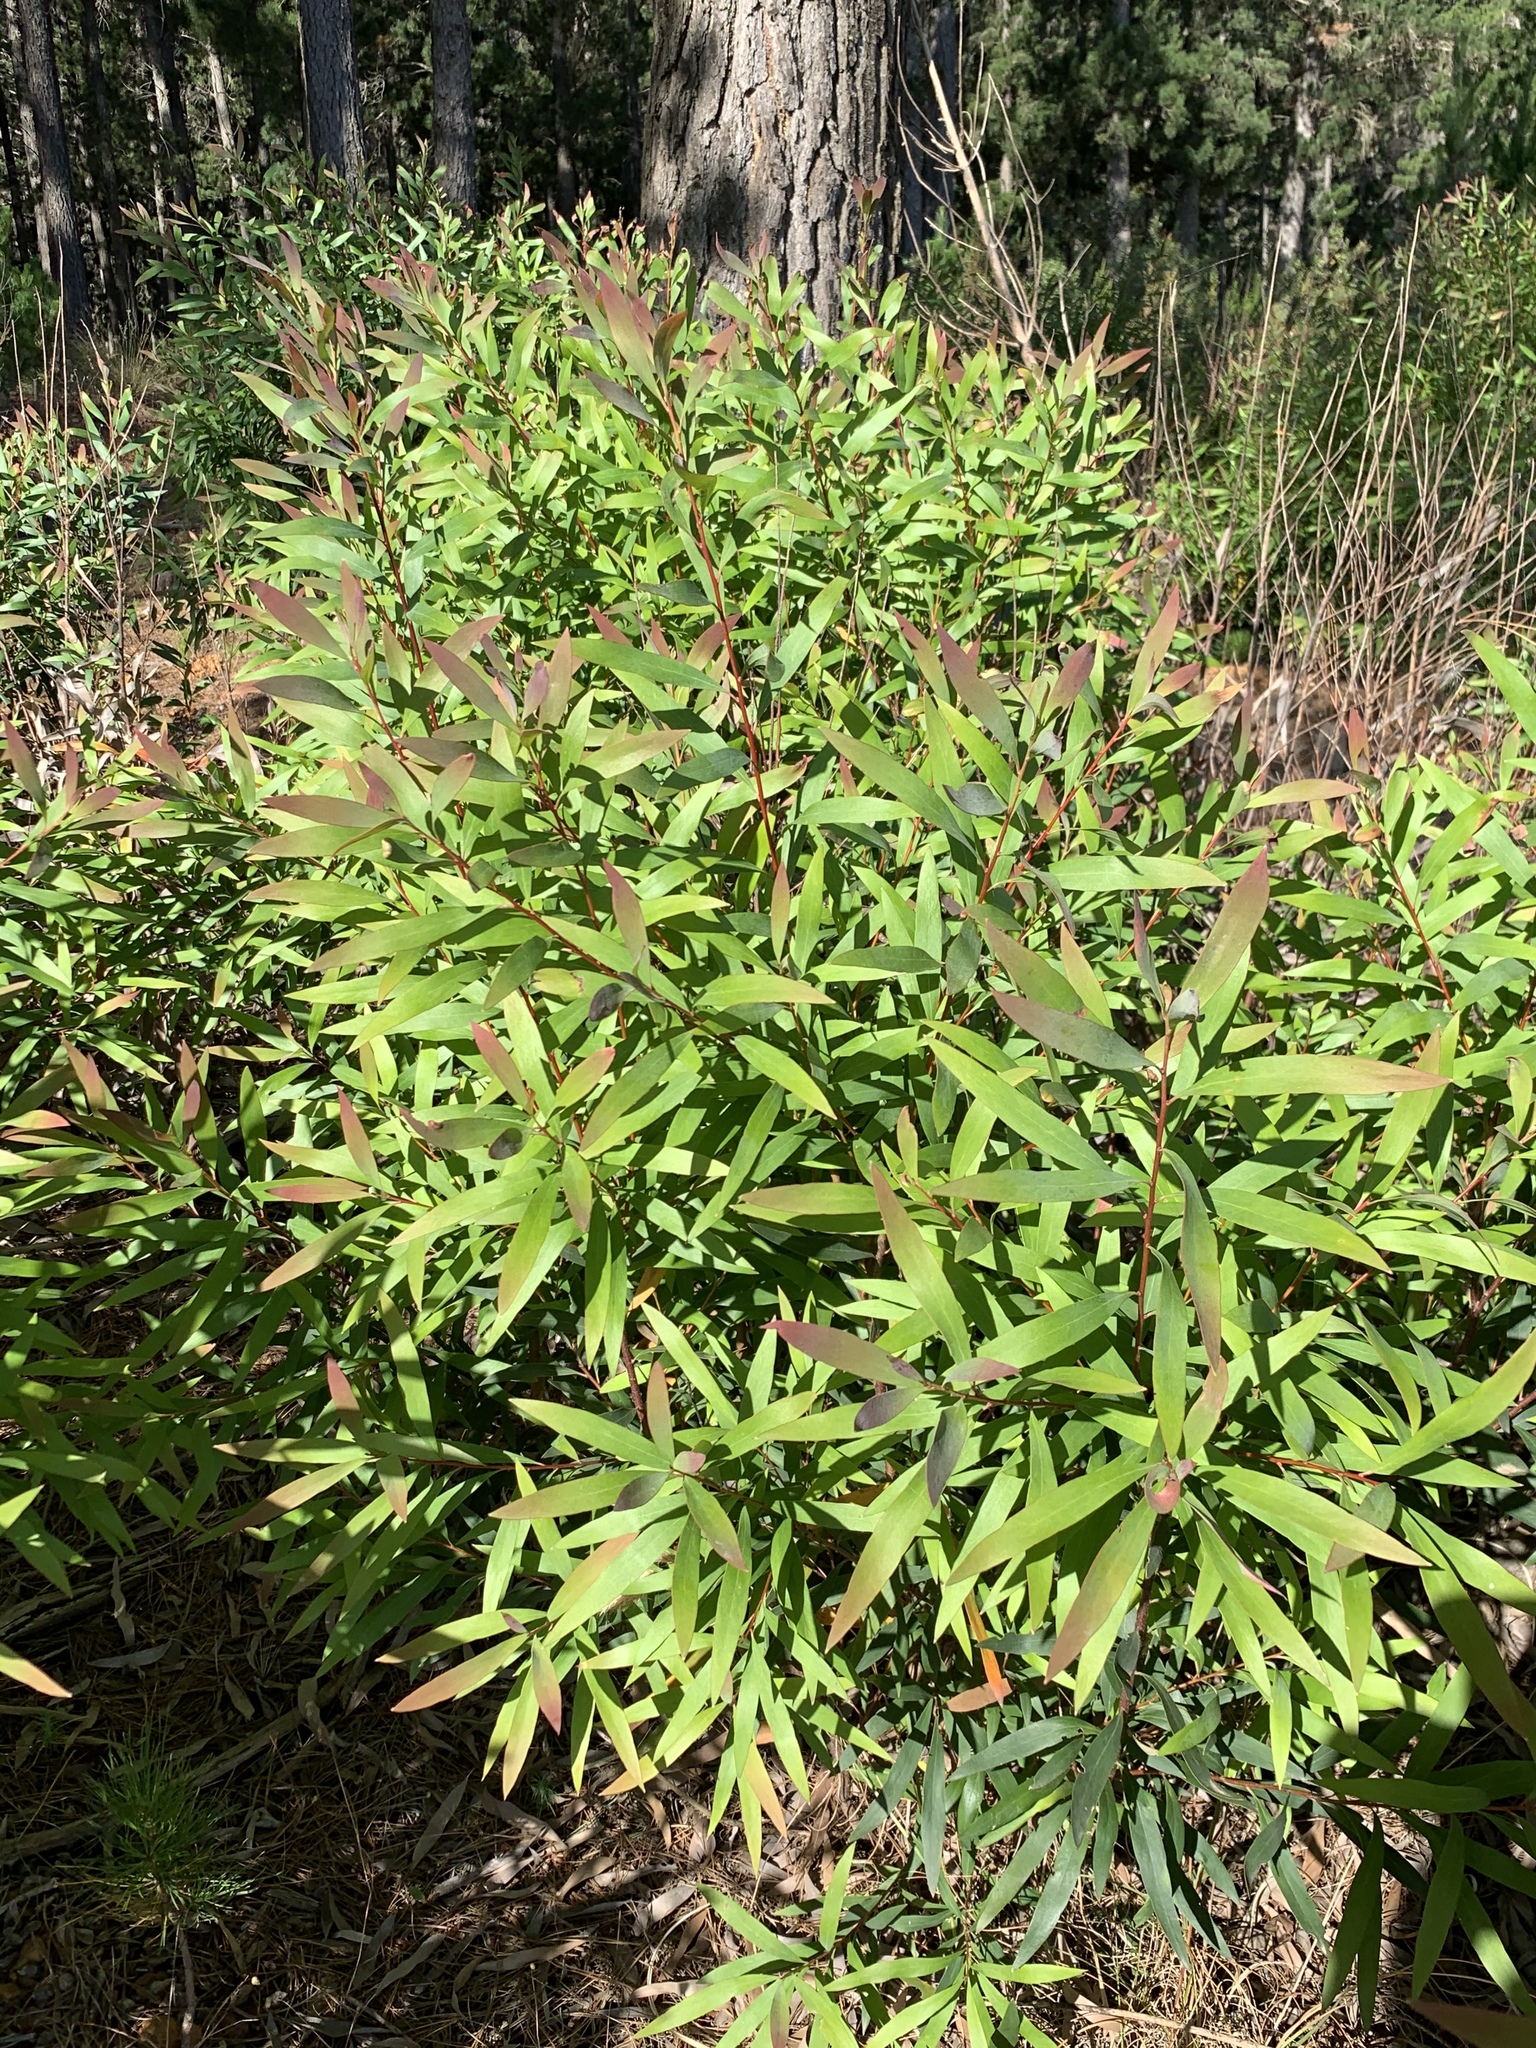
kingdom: Plantae
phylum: Tracheophyta
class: Magnoliopsida
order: Proteales
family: Proteaceae
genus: Hakea
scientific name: Hakea salicifolia
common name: Willow hakea
